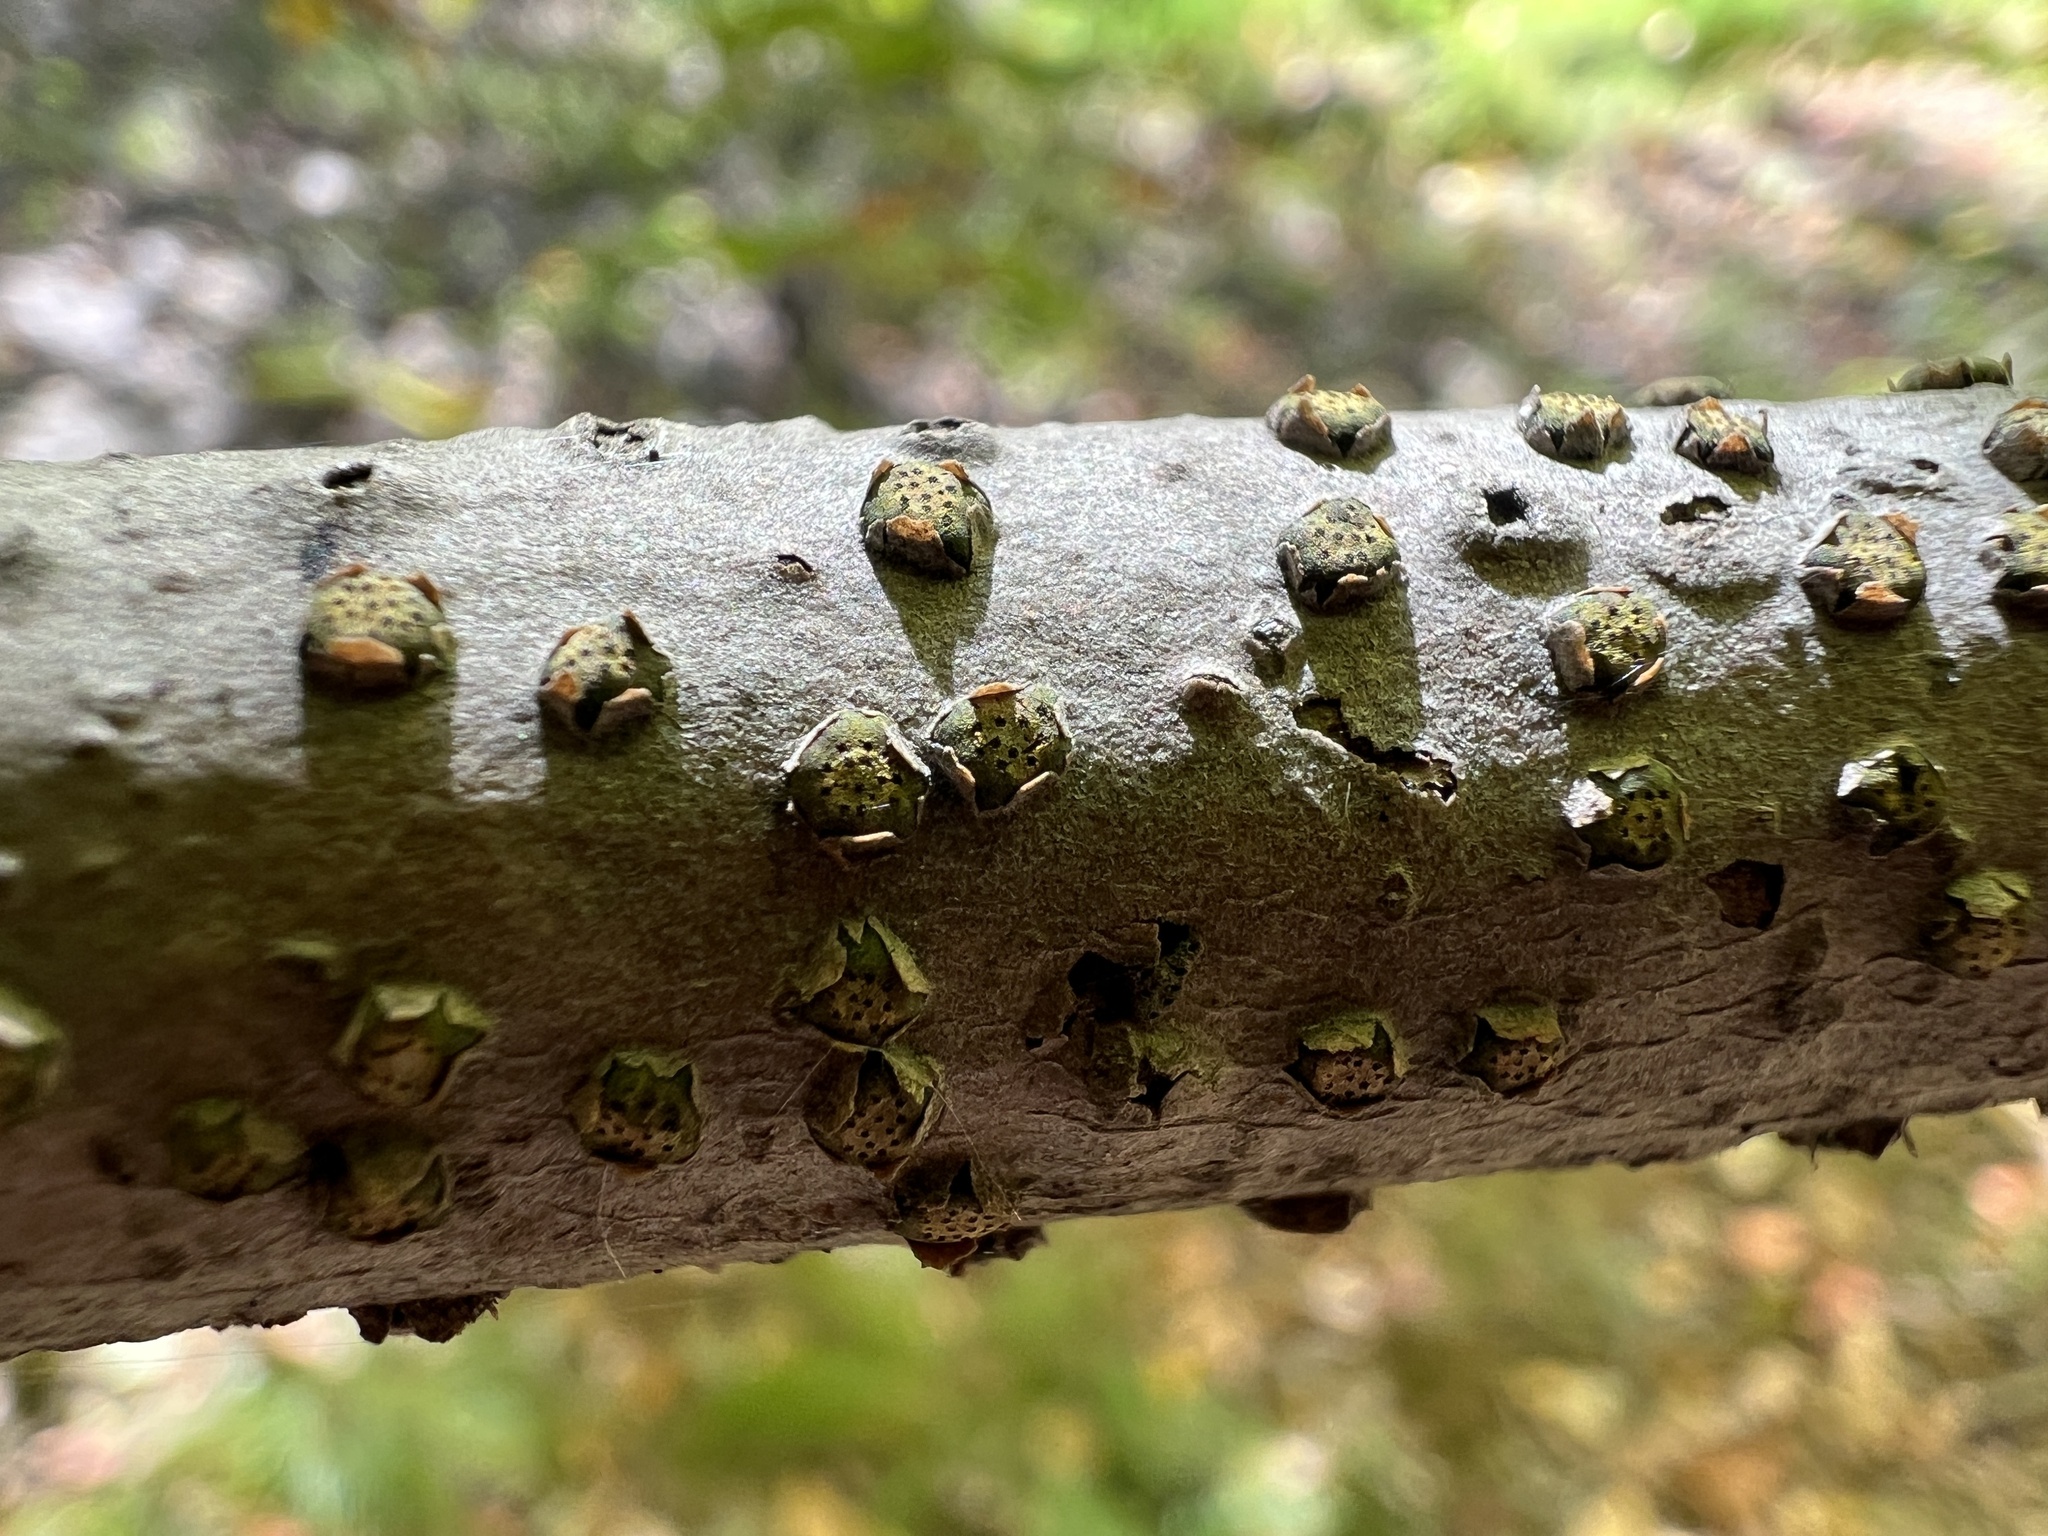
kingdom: Fungi
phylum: Ascomycota
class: Sordariomycetes
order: Xylariales
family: Diatrypaceae
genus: Diatrype
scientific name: Diatrype virescens
